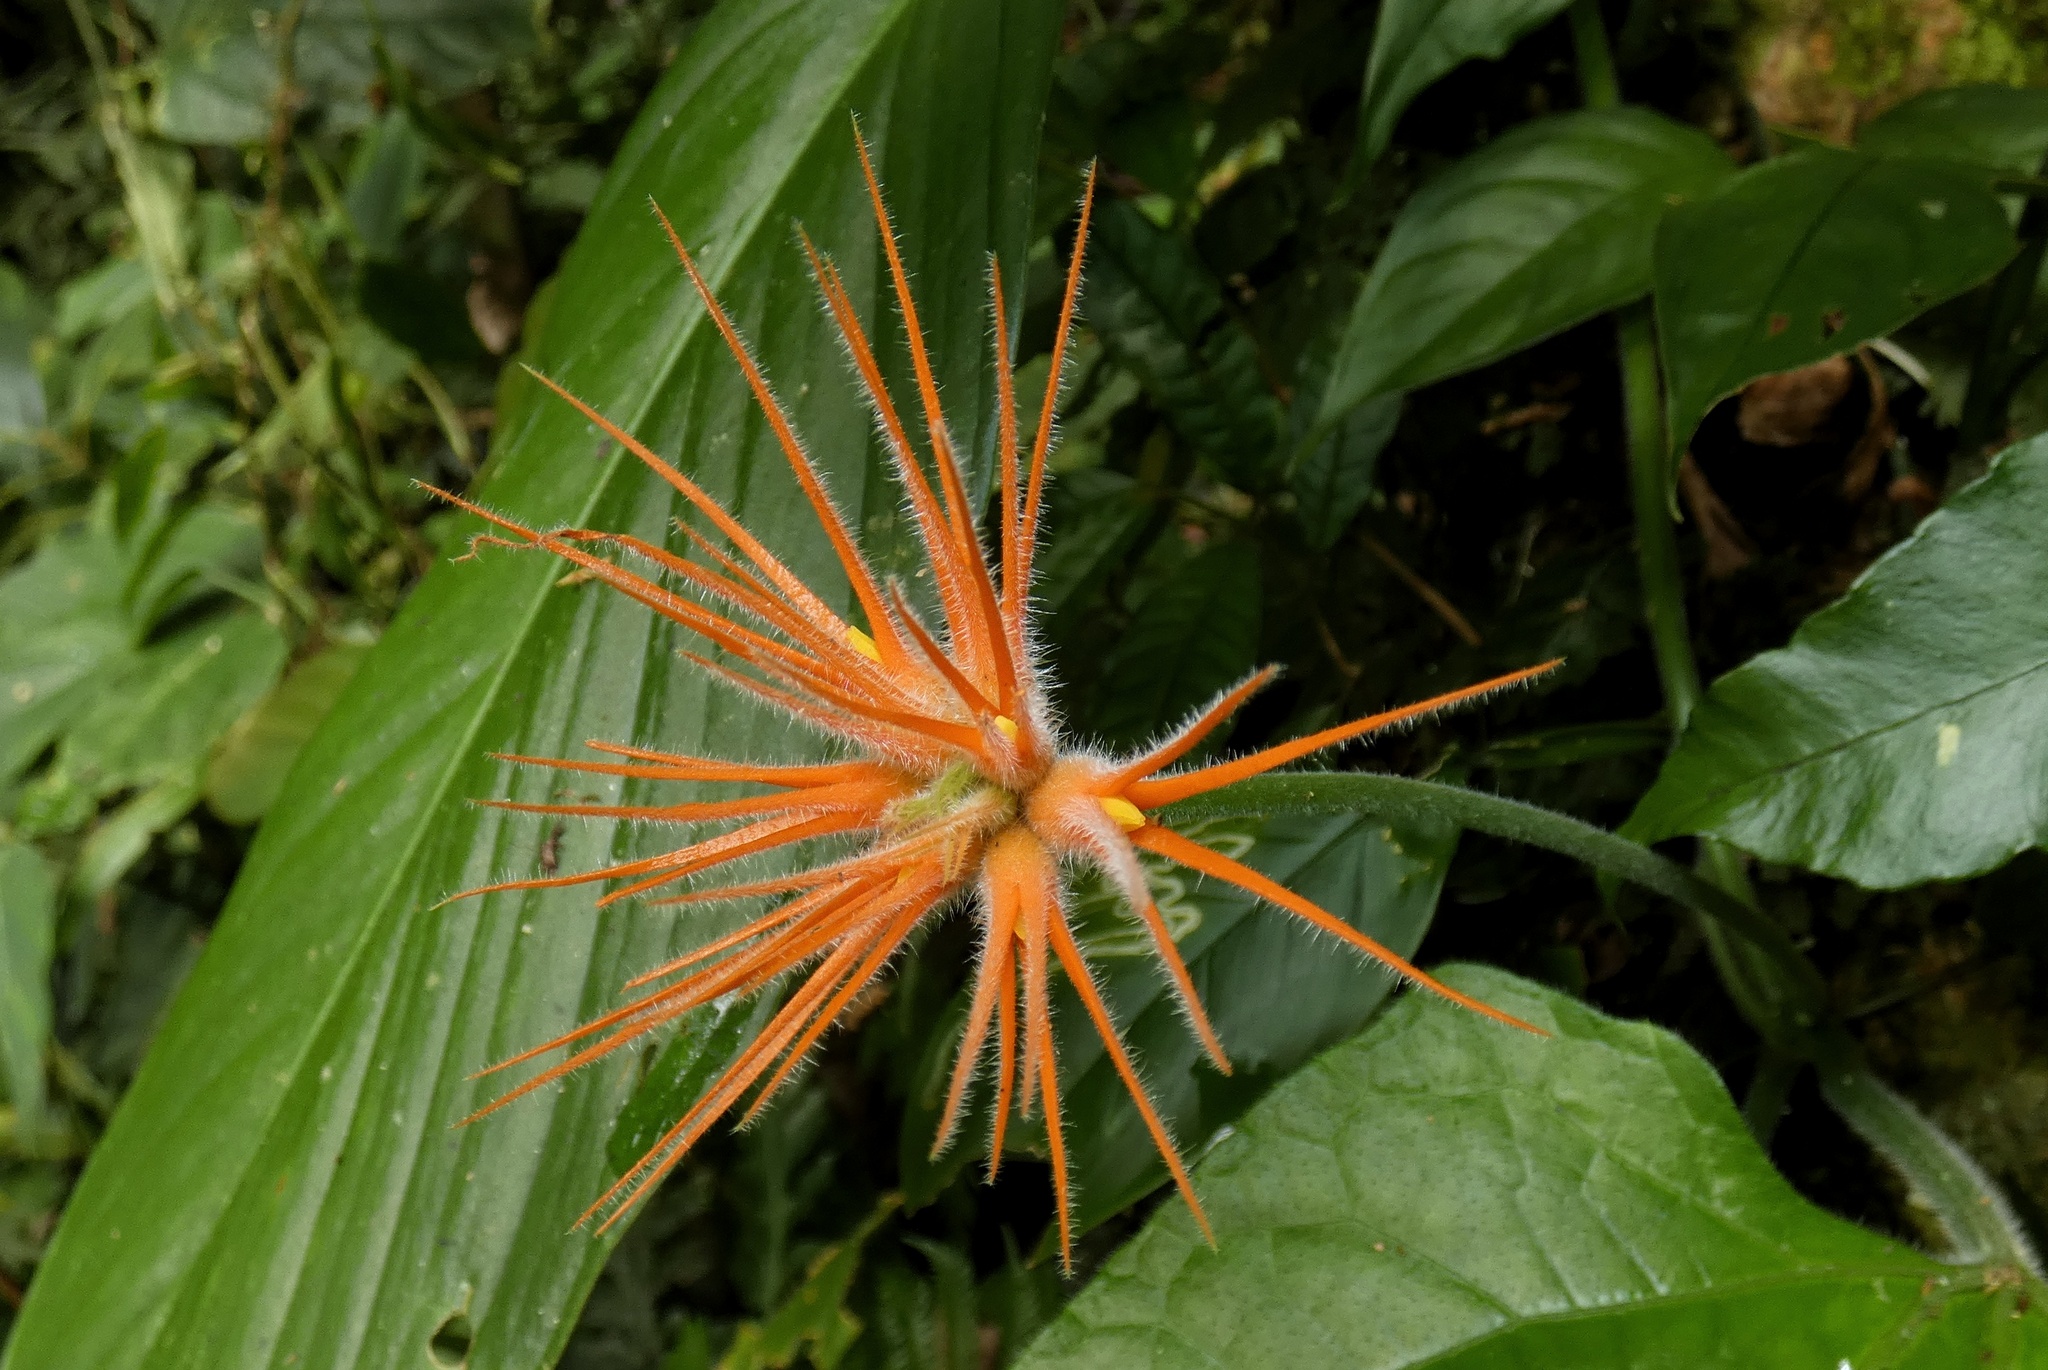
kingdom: Plantae
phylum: Tracheophyta
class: Magnoliopsida
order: Cucurbitales
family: Cucurbitaceae
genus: Gurania
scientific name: Gurania makoyana
